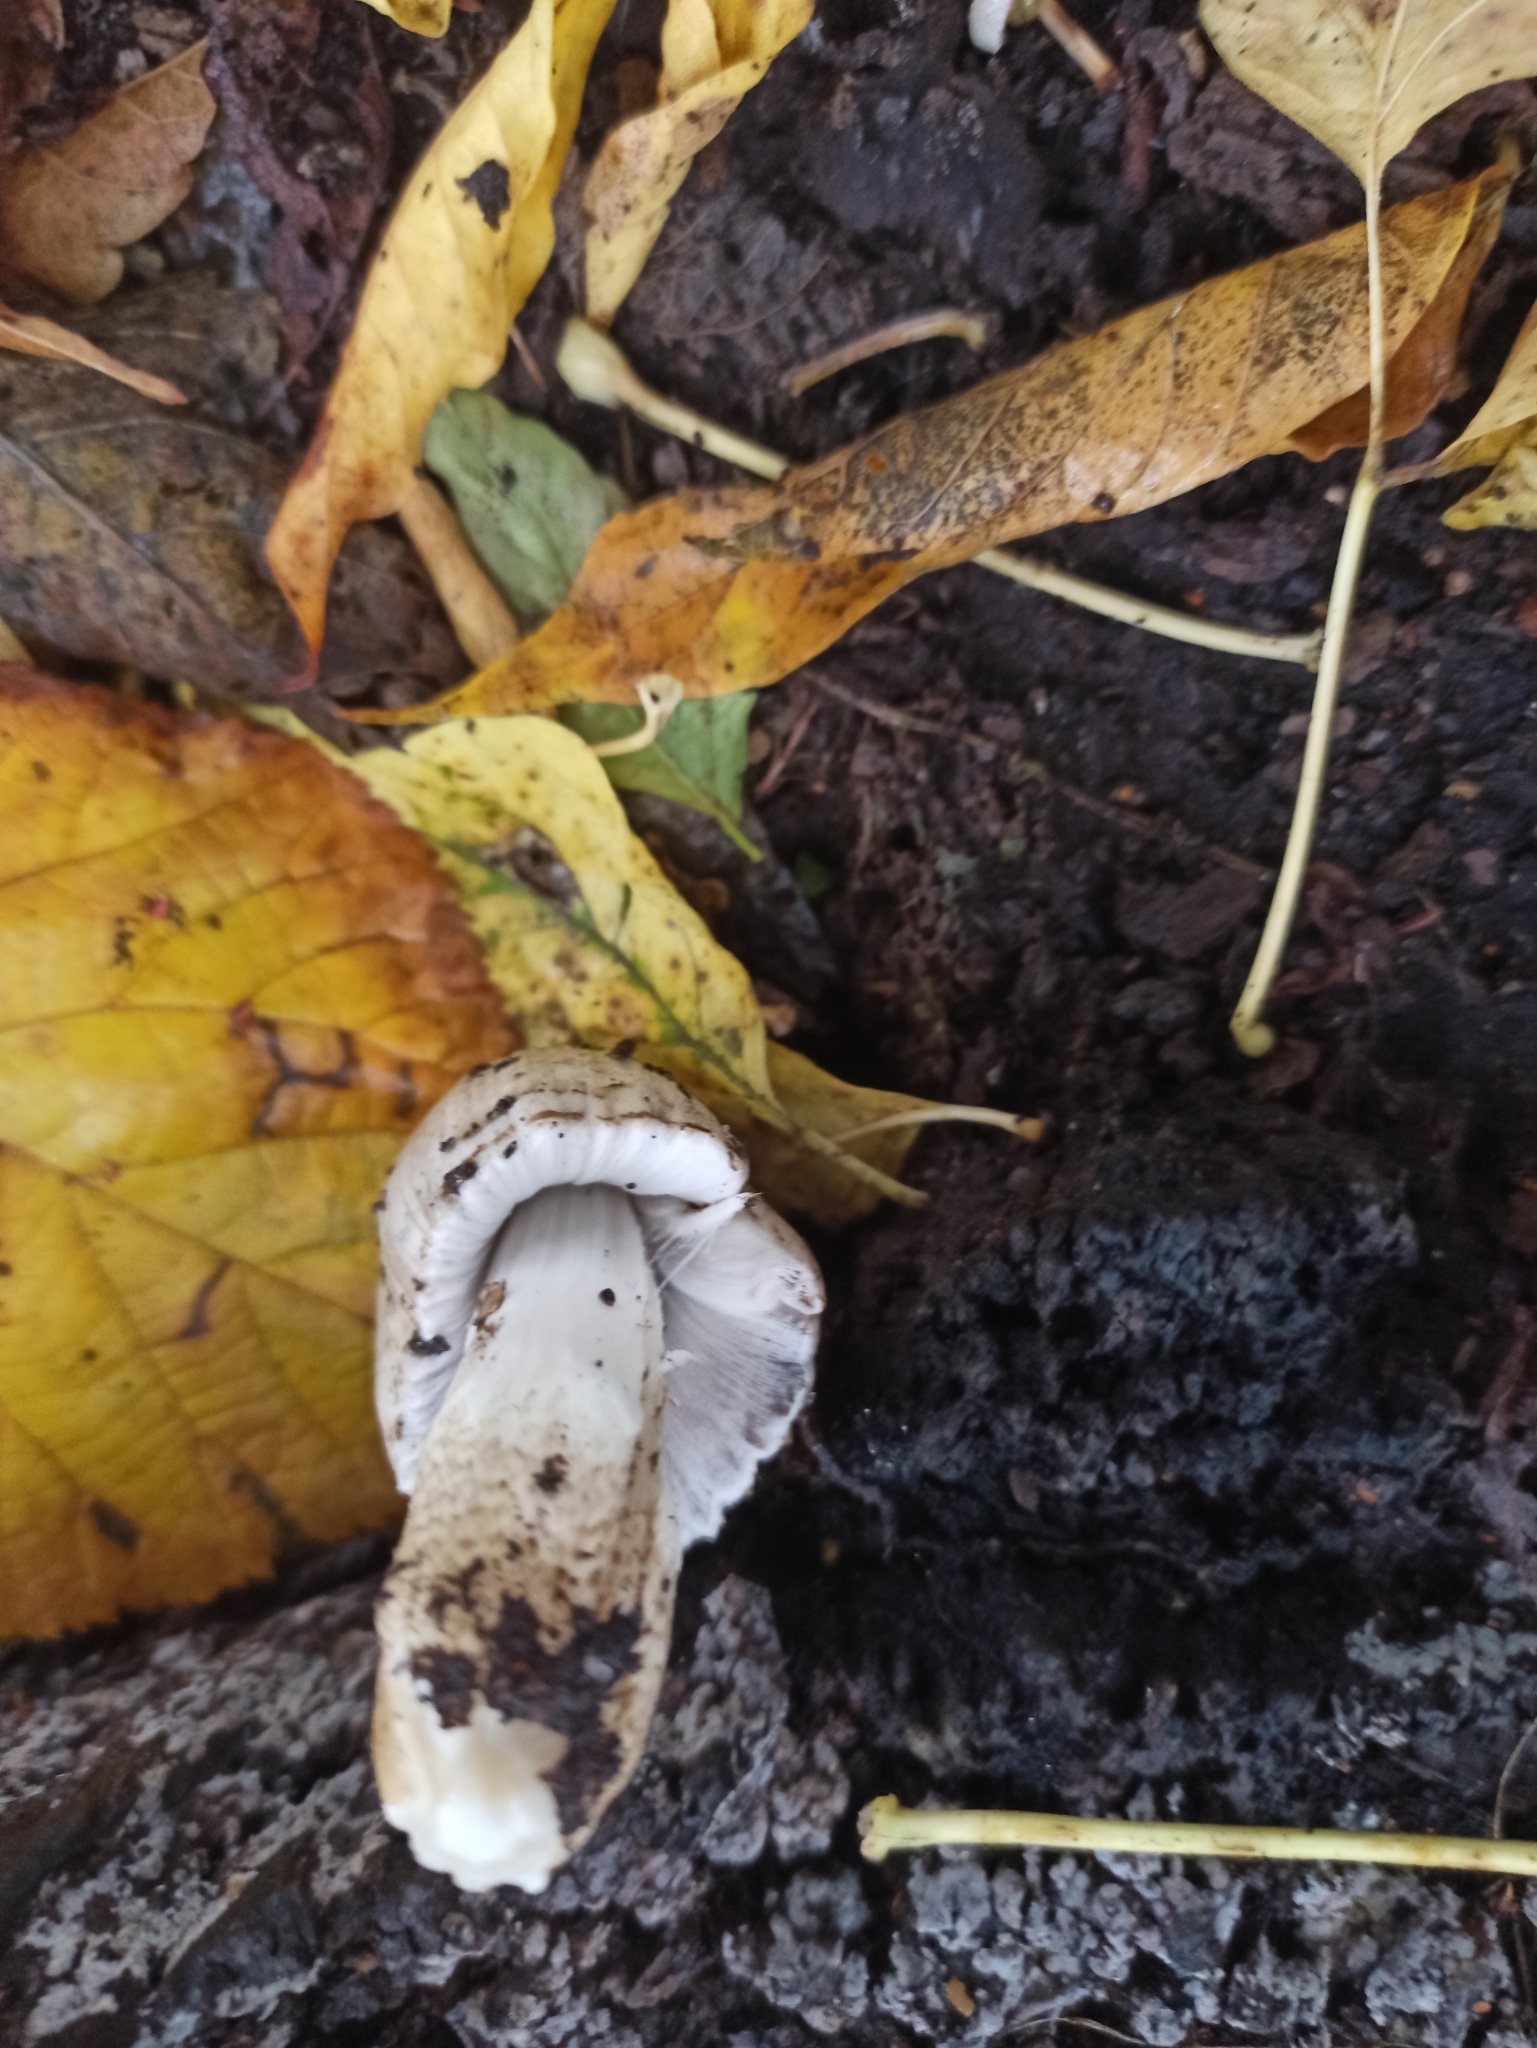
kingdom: Fungi
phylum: Basidiomycota
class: Agaricomycetes
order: Agaricales
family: Psathyrellaceae
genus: Coprinopsis
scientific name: Coprinopsis romagnesiana
